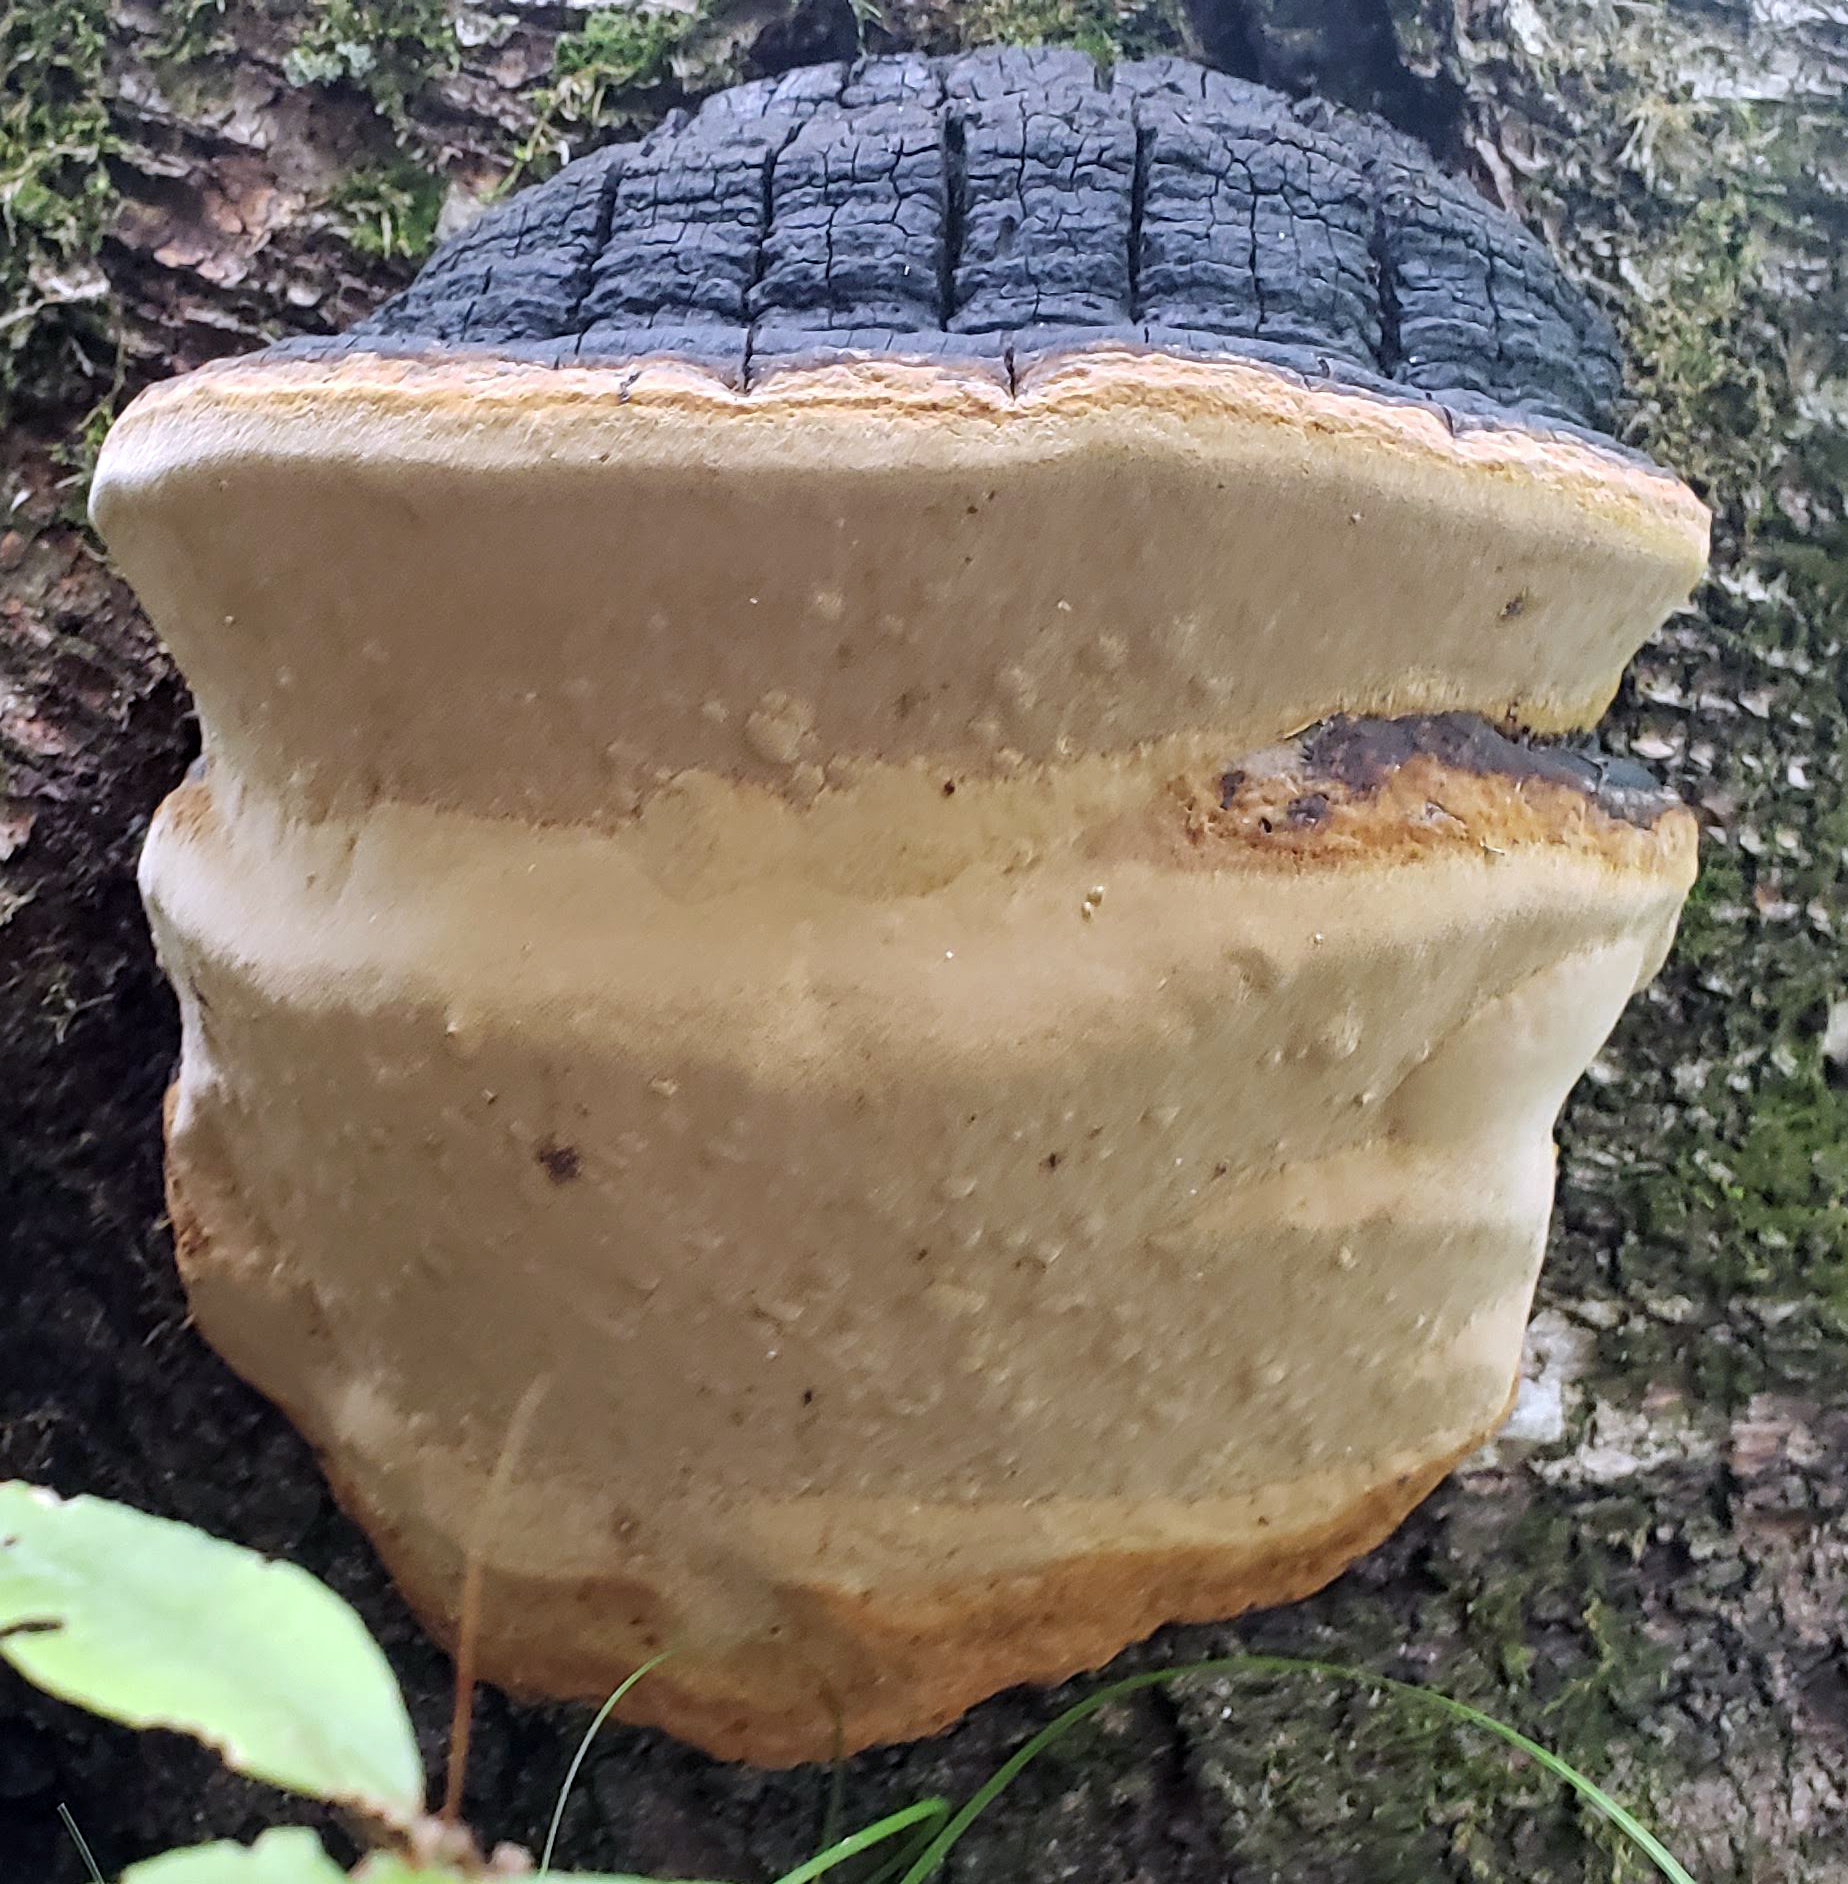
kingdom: Fungi
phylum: Basidiomycota
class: Agaricomycetes
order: Hymenochaetales
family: Hymenochaetaceae
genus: Phellinus
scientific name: Phellinus tremulae
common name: Aspen bracket
